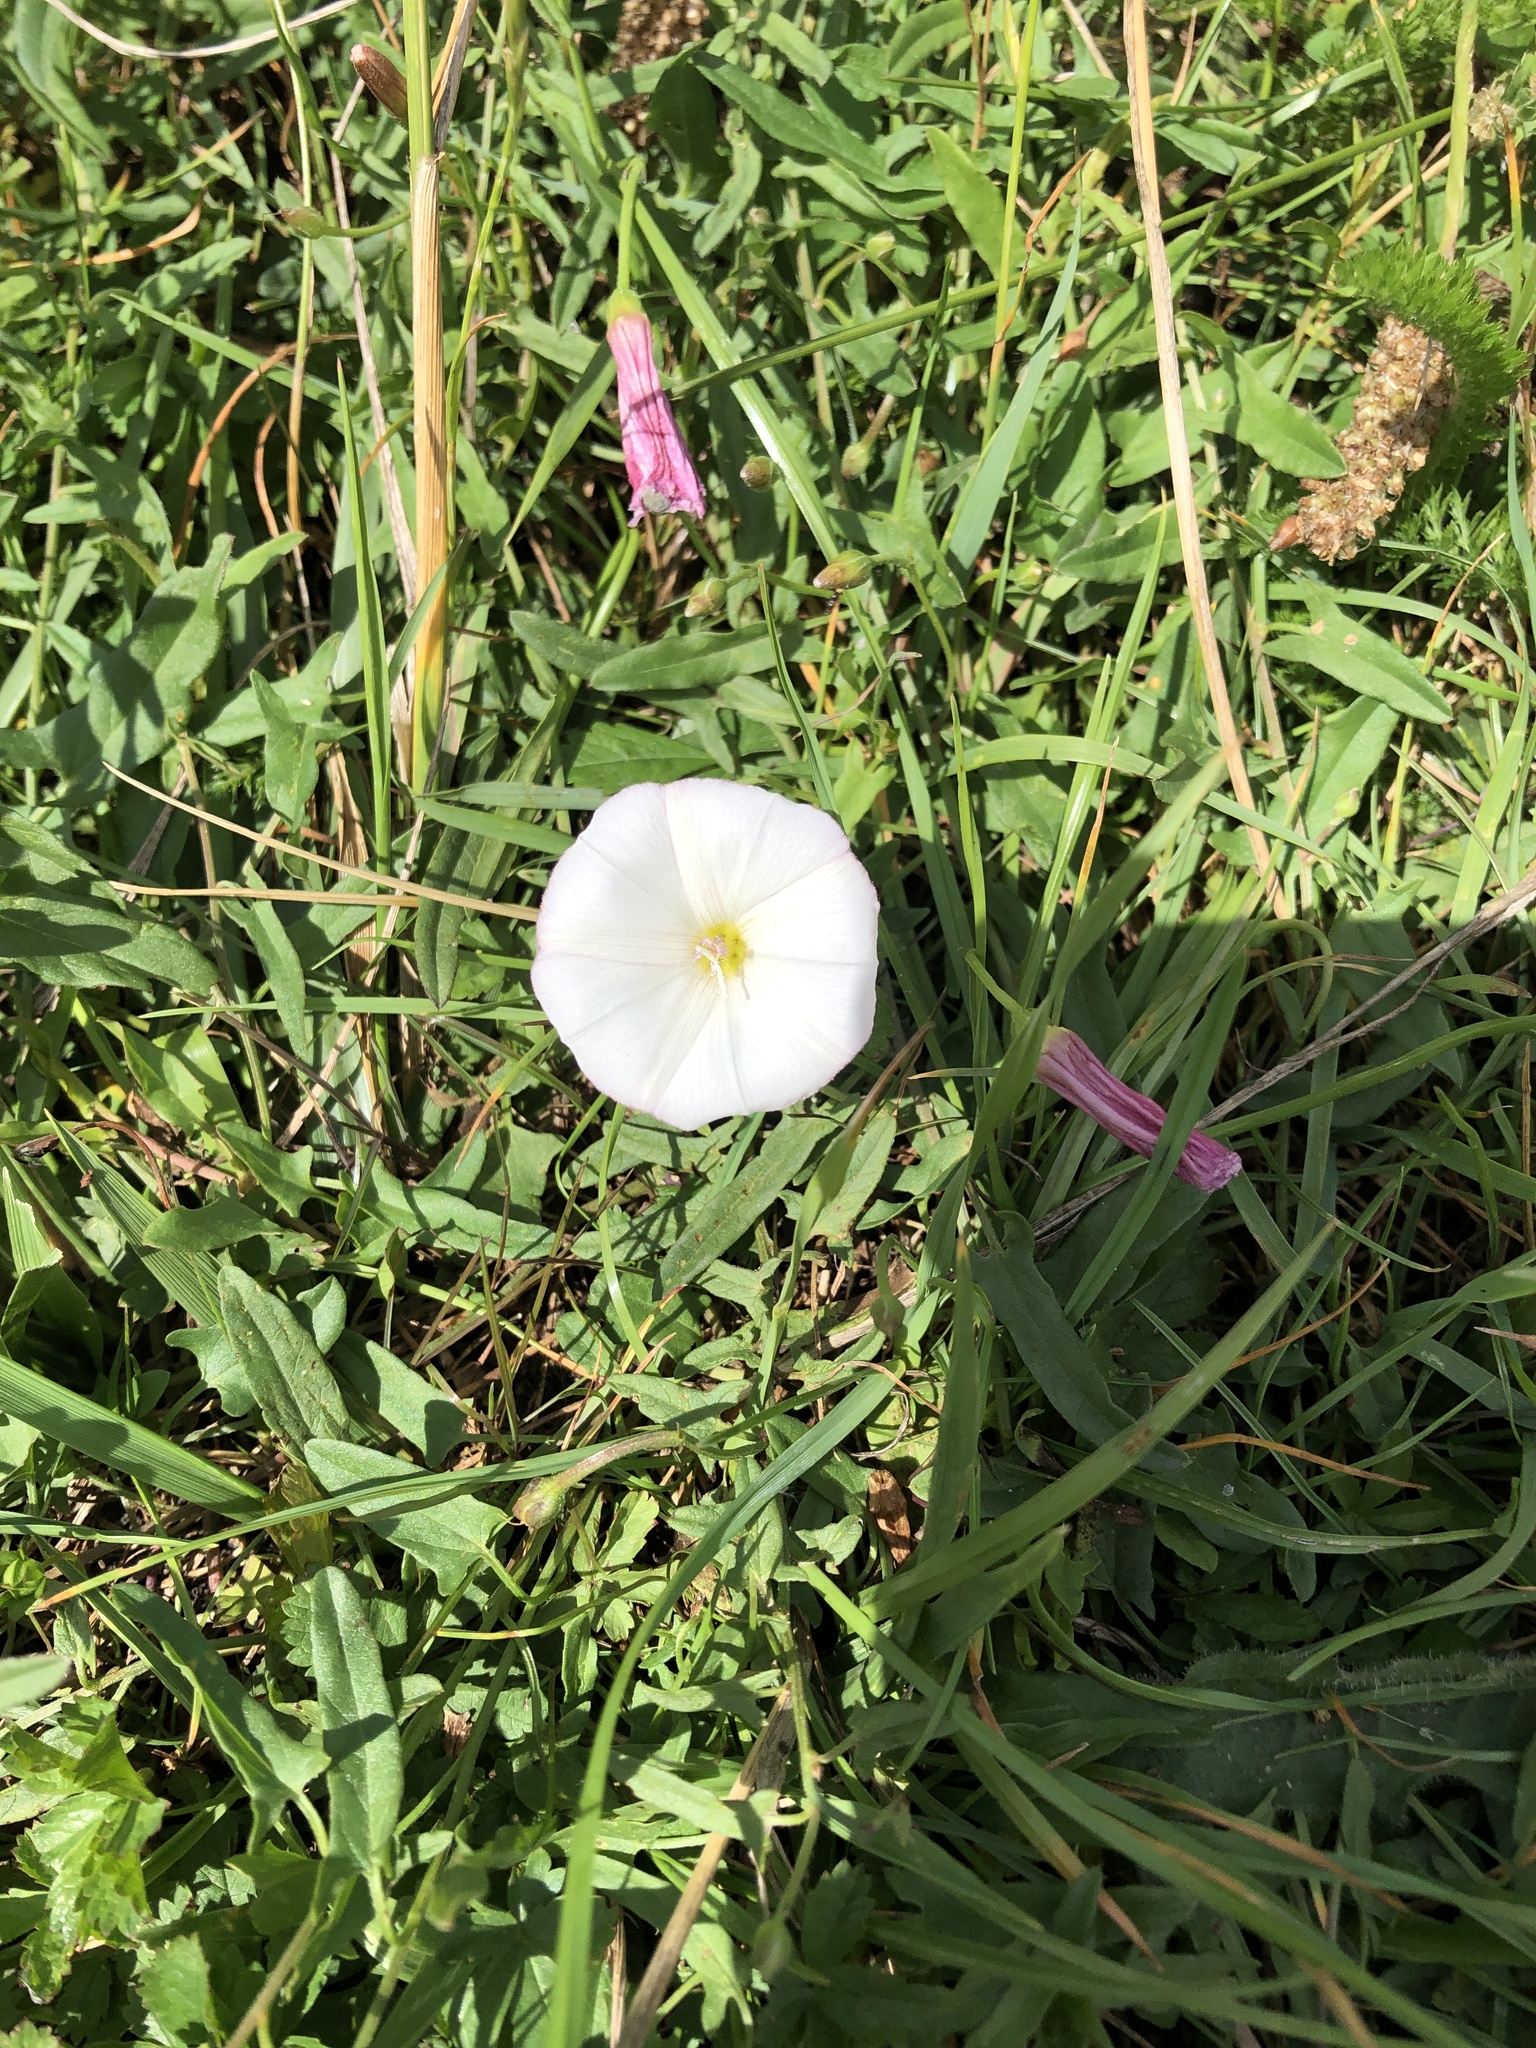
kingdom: Plantae
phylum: Tracheophyta
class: Magnoliopsida
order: Solanales
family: Convolvulaceae
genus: Convolvulus
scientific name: Convolvulus arvensis
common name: Field bindweed
